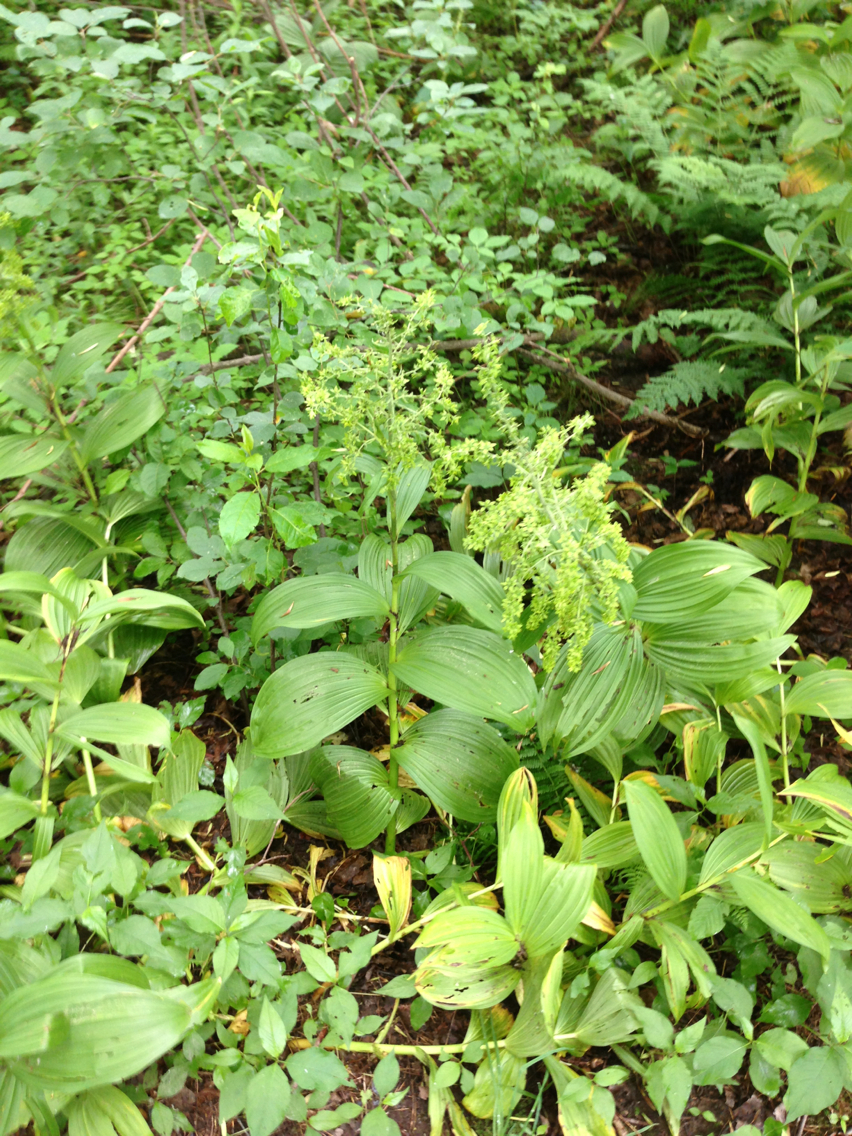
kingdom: Plantae
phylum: Tracheophyta
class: Liliopsida
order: Liliales
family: Melanthiaceae
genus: Veratrum
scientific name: Veratrum viride
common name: American false hellebore
